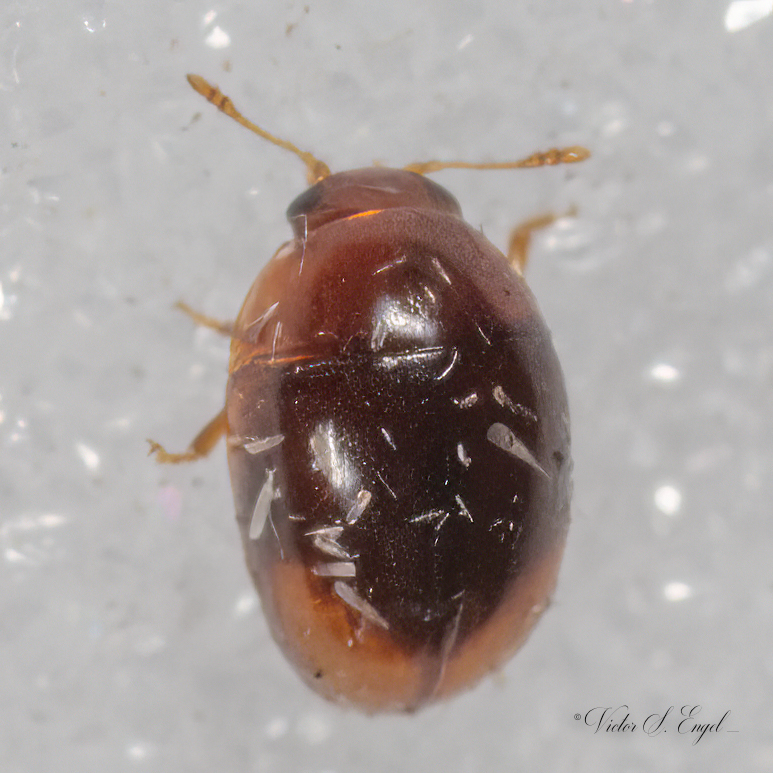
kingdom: Animalia
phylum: Arthropoda
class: Insecta
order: Coleoptera
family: Phalacridae
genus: Phalacrus
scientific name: Phalacrus apicalis
